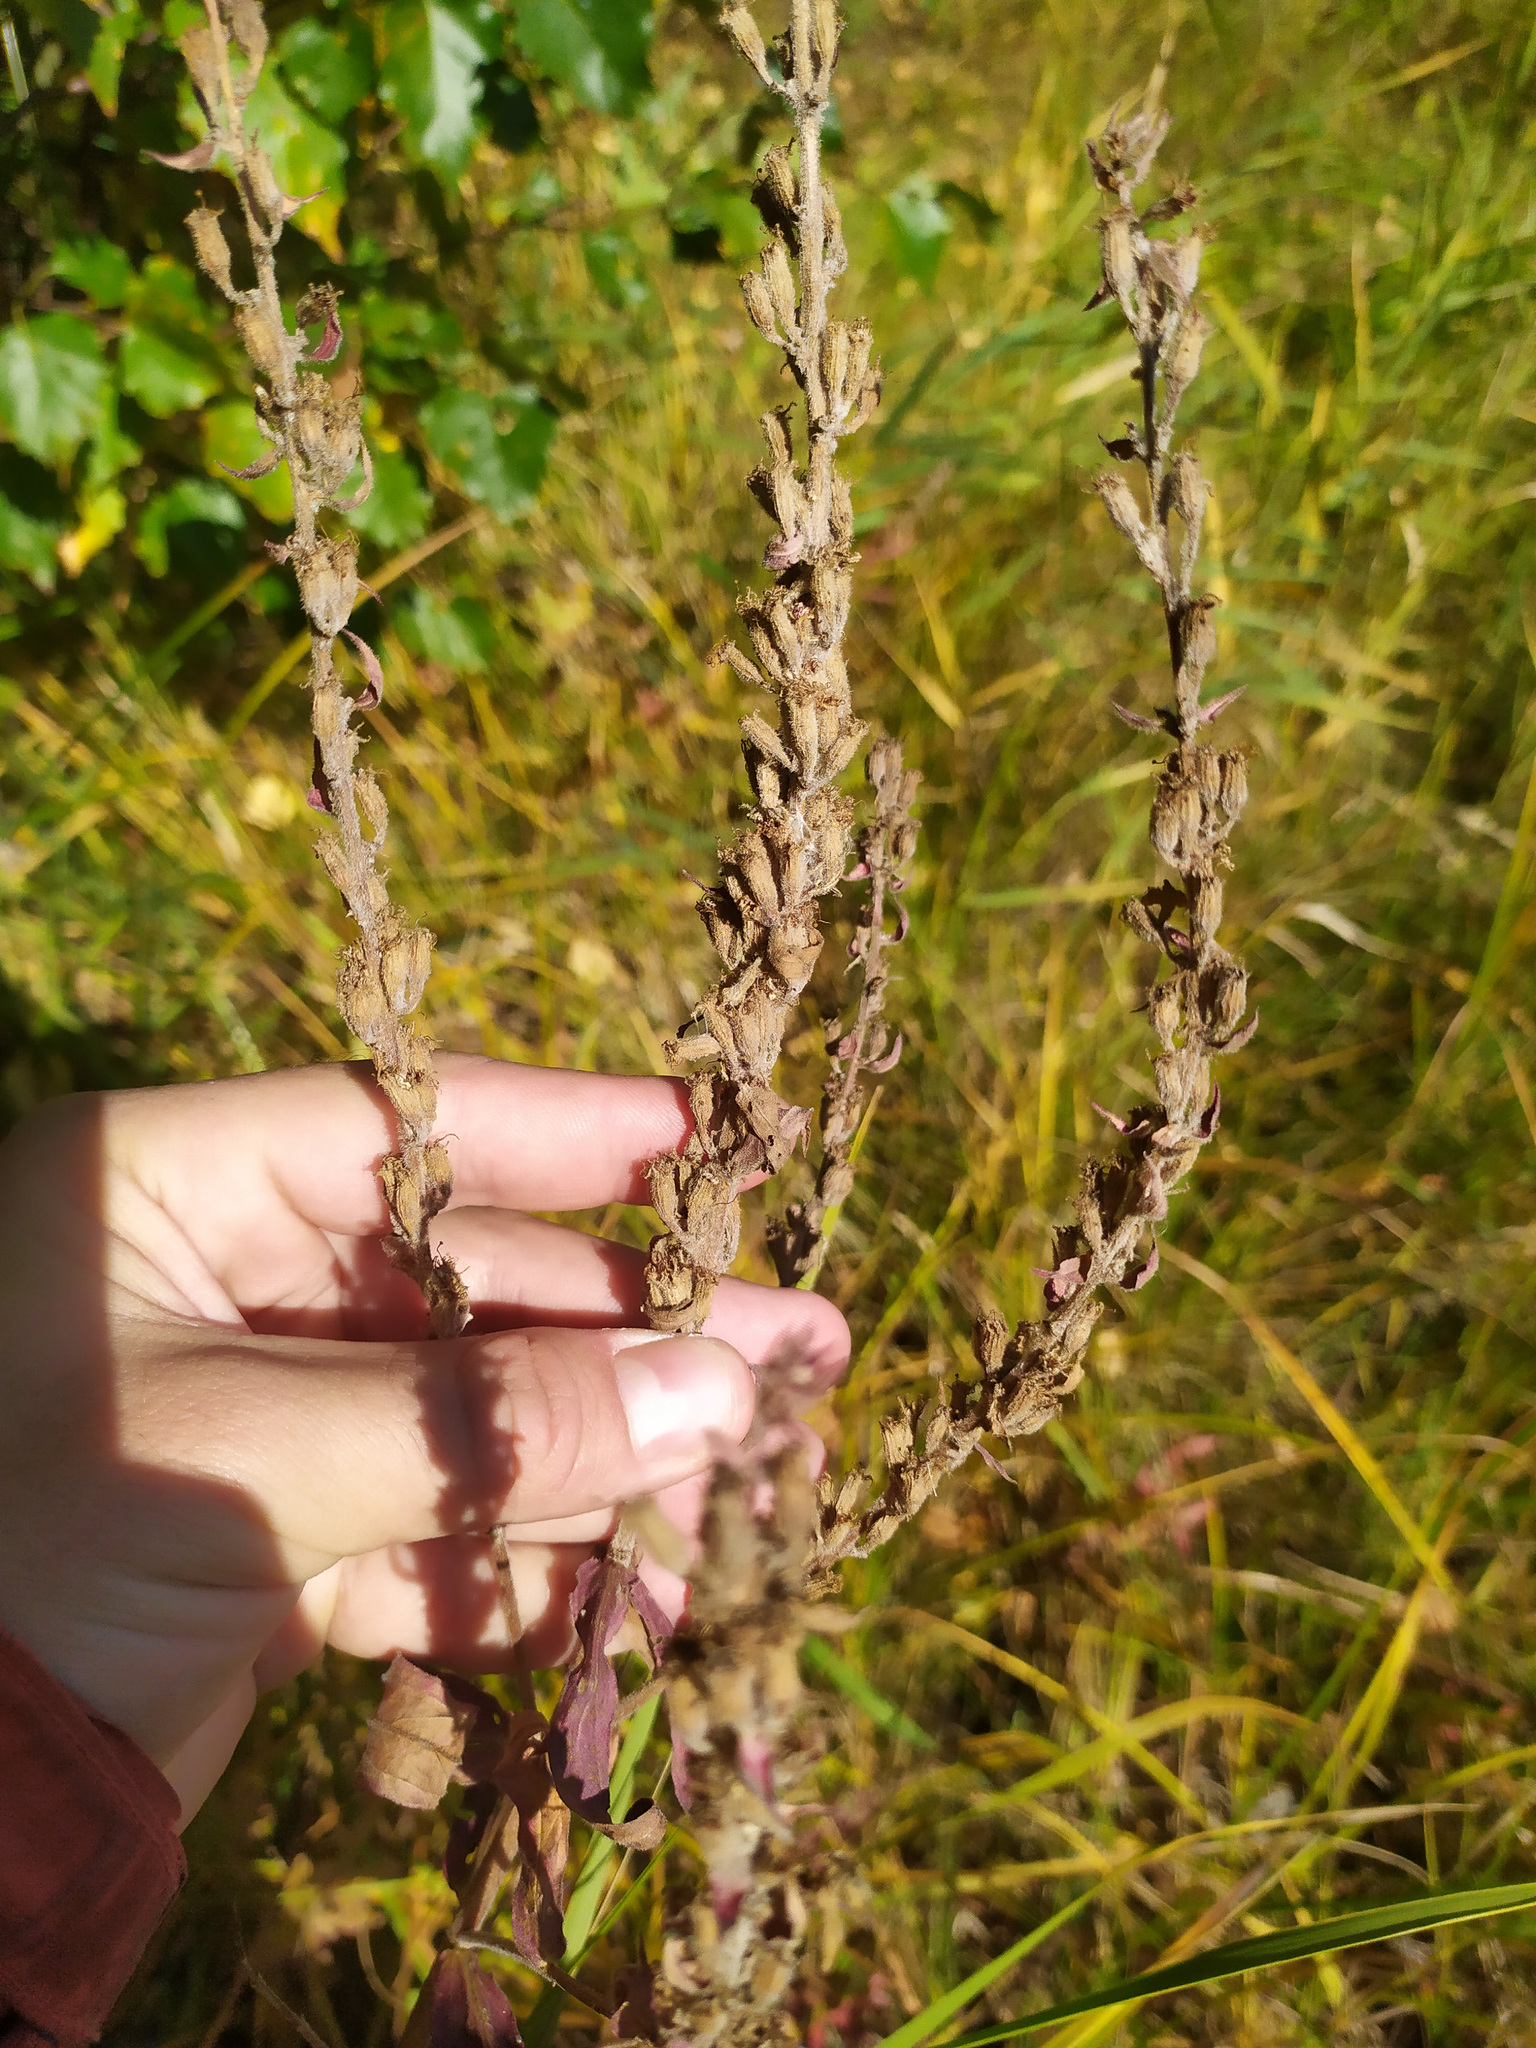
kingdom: Plantae
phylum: Tracheophyta
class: Magnoliopsida
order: Lamiales
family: Orobanchaceae
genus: Odontites
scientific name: Odontites vulgaris
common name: Broomrape
